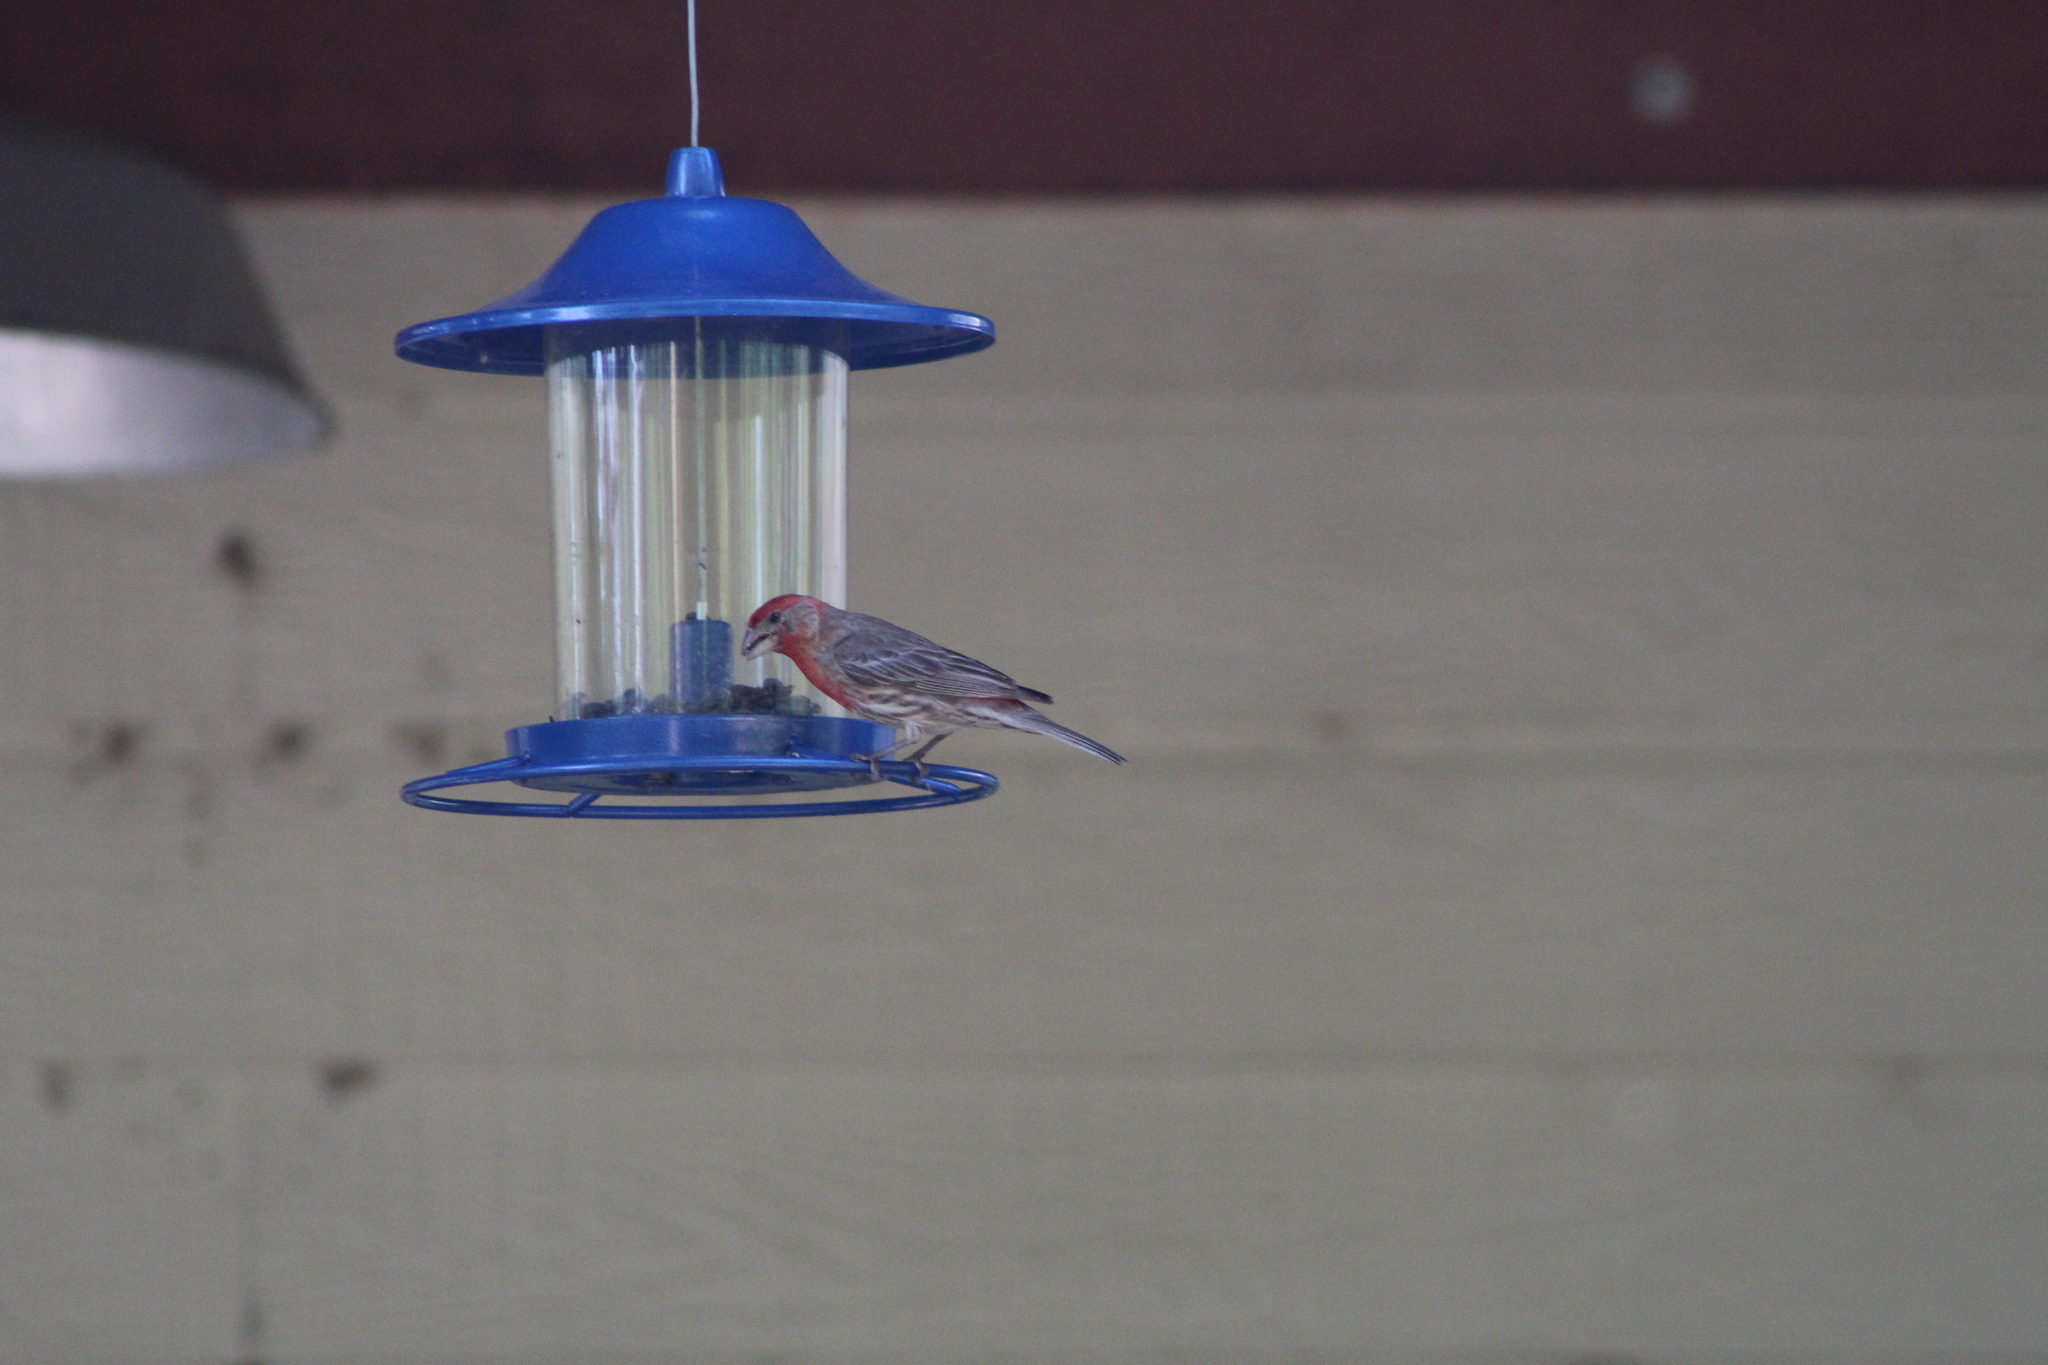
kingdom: Animalia
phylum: Chordata
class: Aves
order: Passeriformes
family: Fringillidae
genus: Haemorhous
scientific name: Haemorhous mexicanus
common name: House finch
